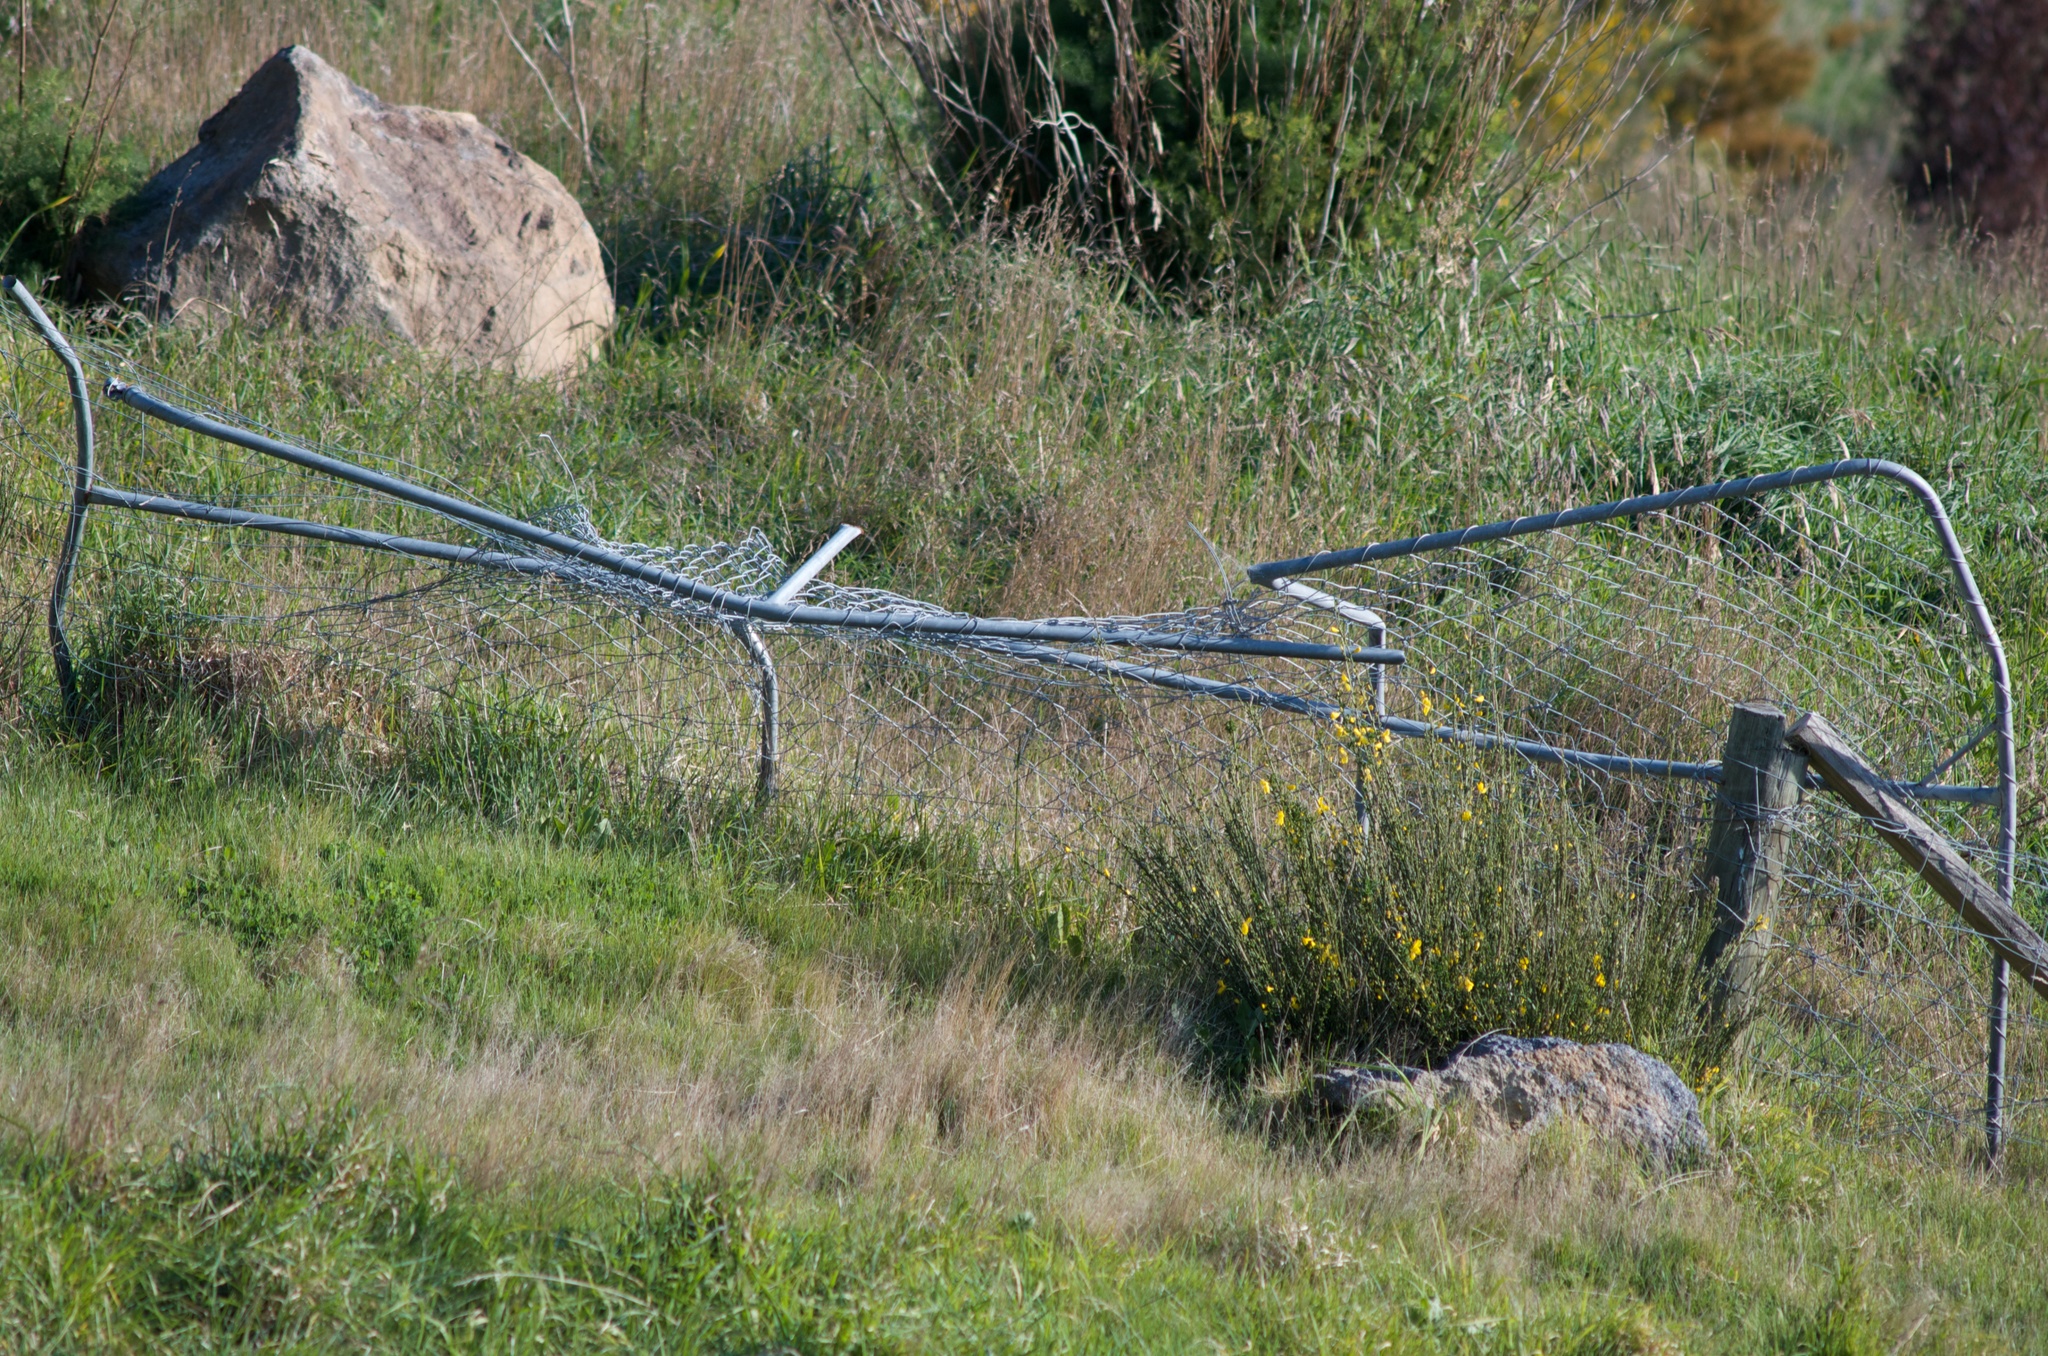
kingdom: Plantae
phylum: Tracheophyta
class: Magnoliopsida
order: Fabales
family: Fabaceae
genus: Cytisus
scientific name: Cytisus scoparius
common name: Scotch broom
